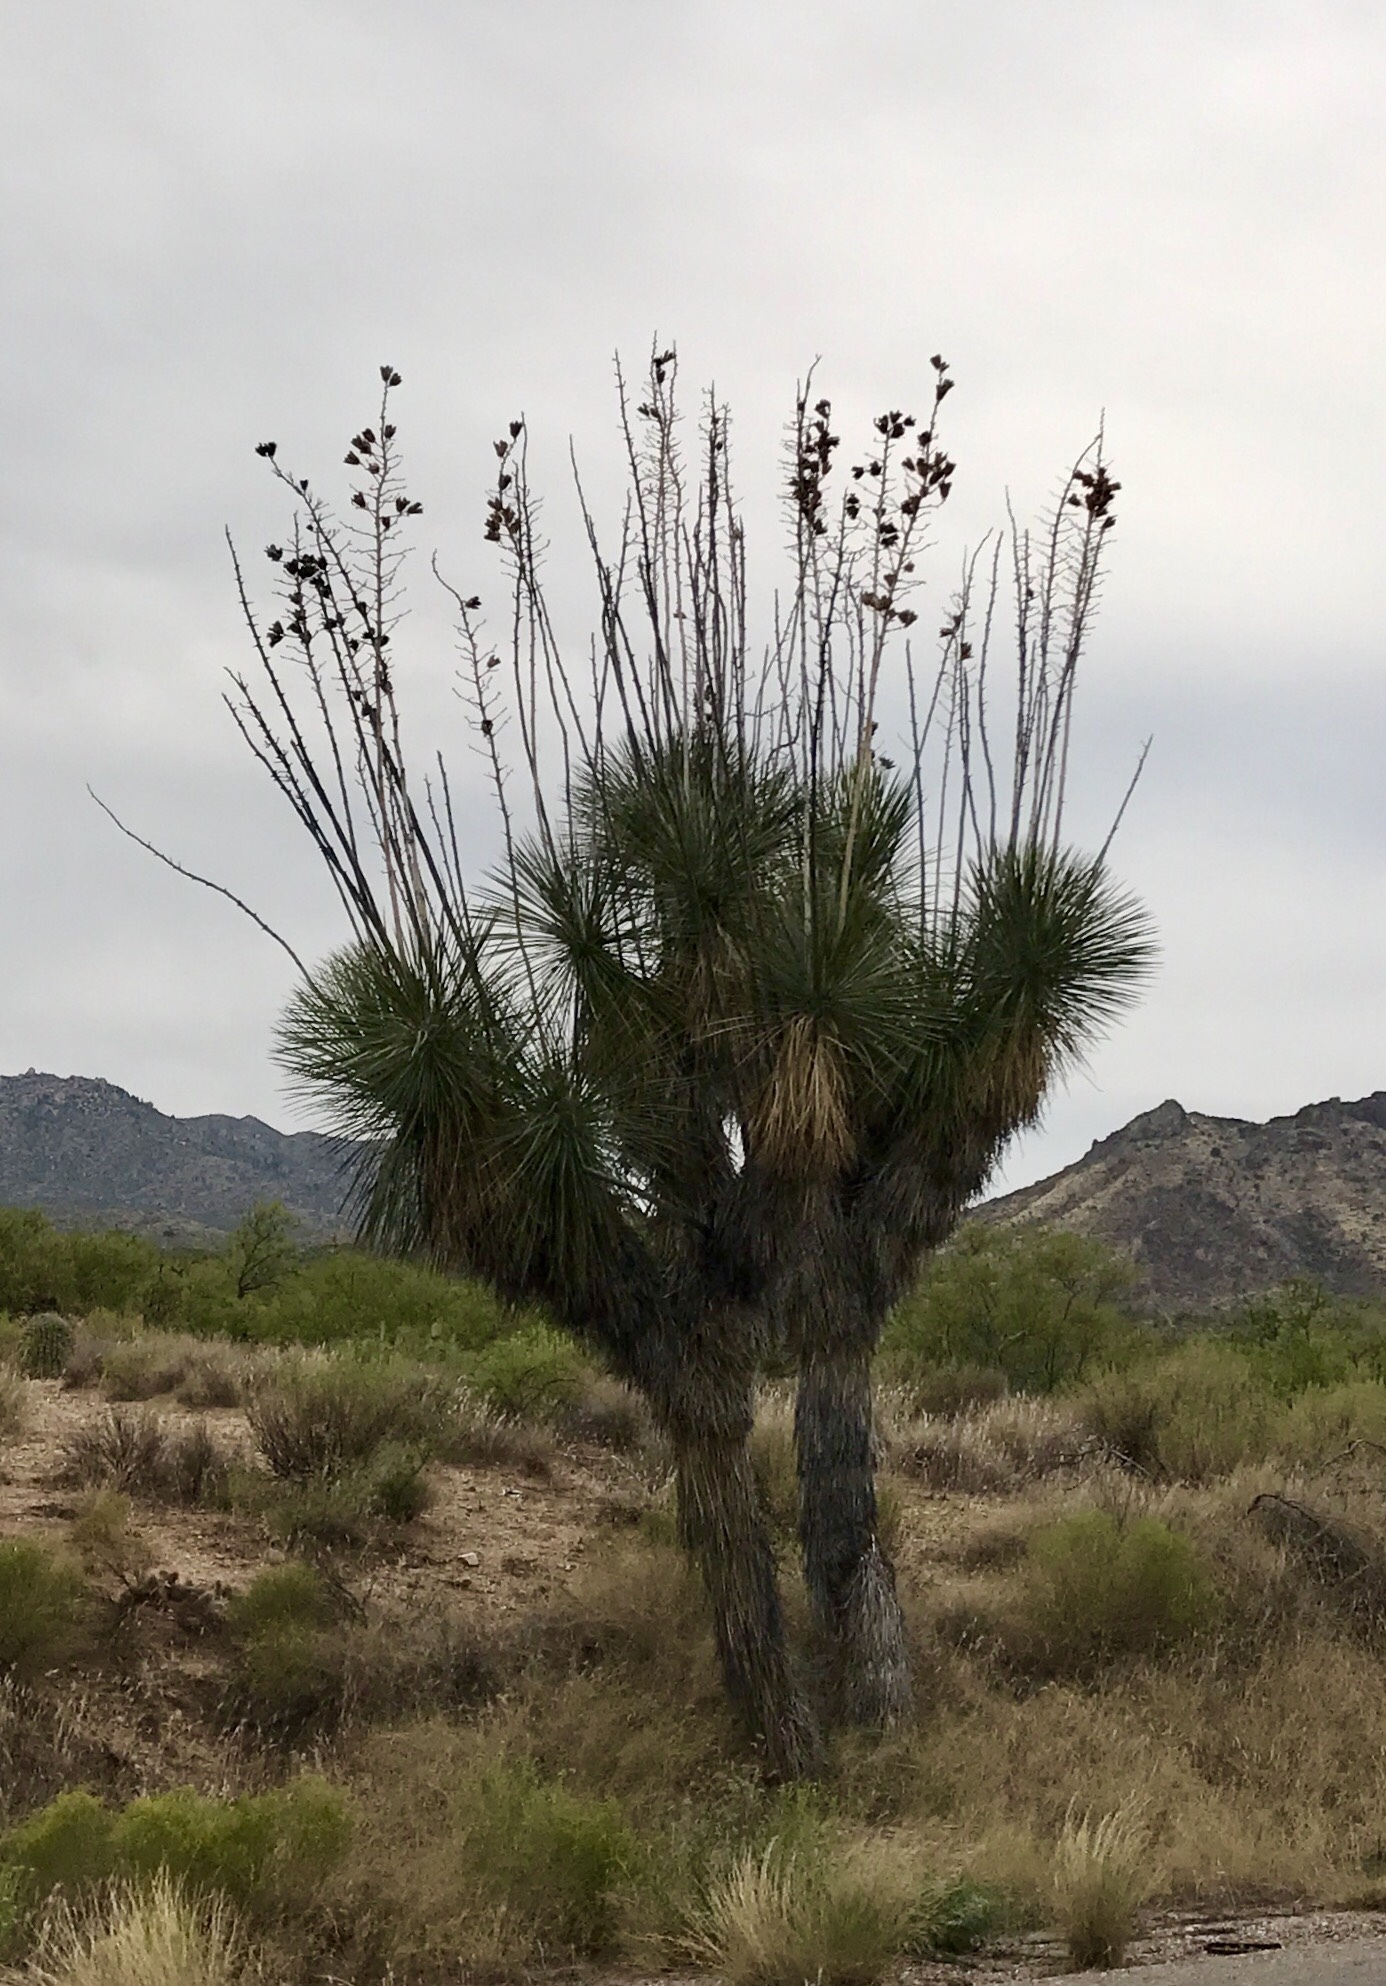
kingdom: Plantae
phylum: Tracheophyta
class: Liliopsida
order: Asparagales
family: Asparagaceae
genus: Yucca
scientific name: Yucca elata
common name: Palmella
